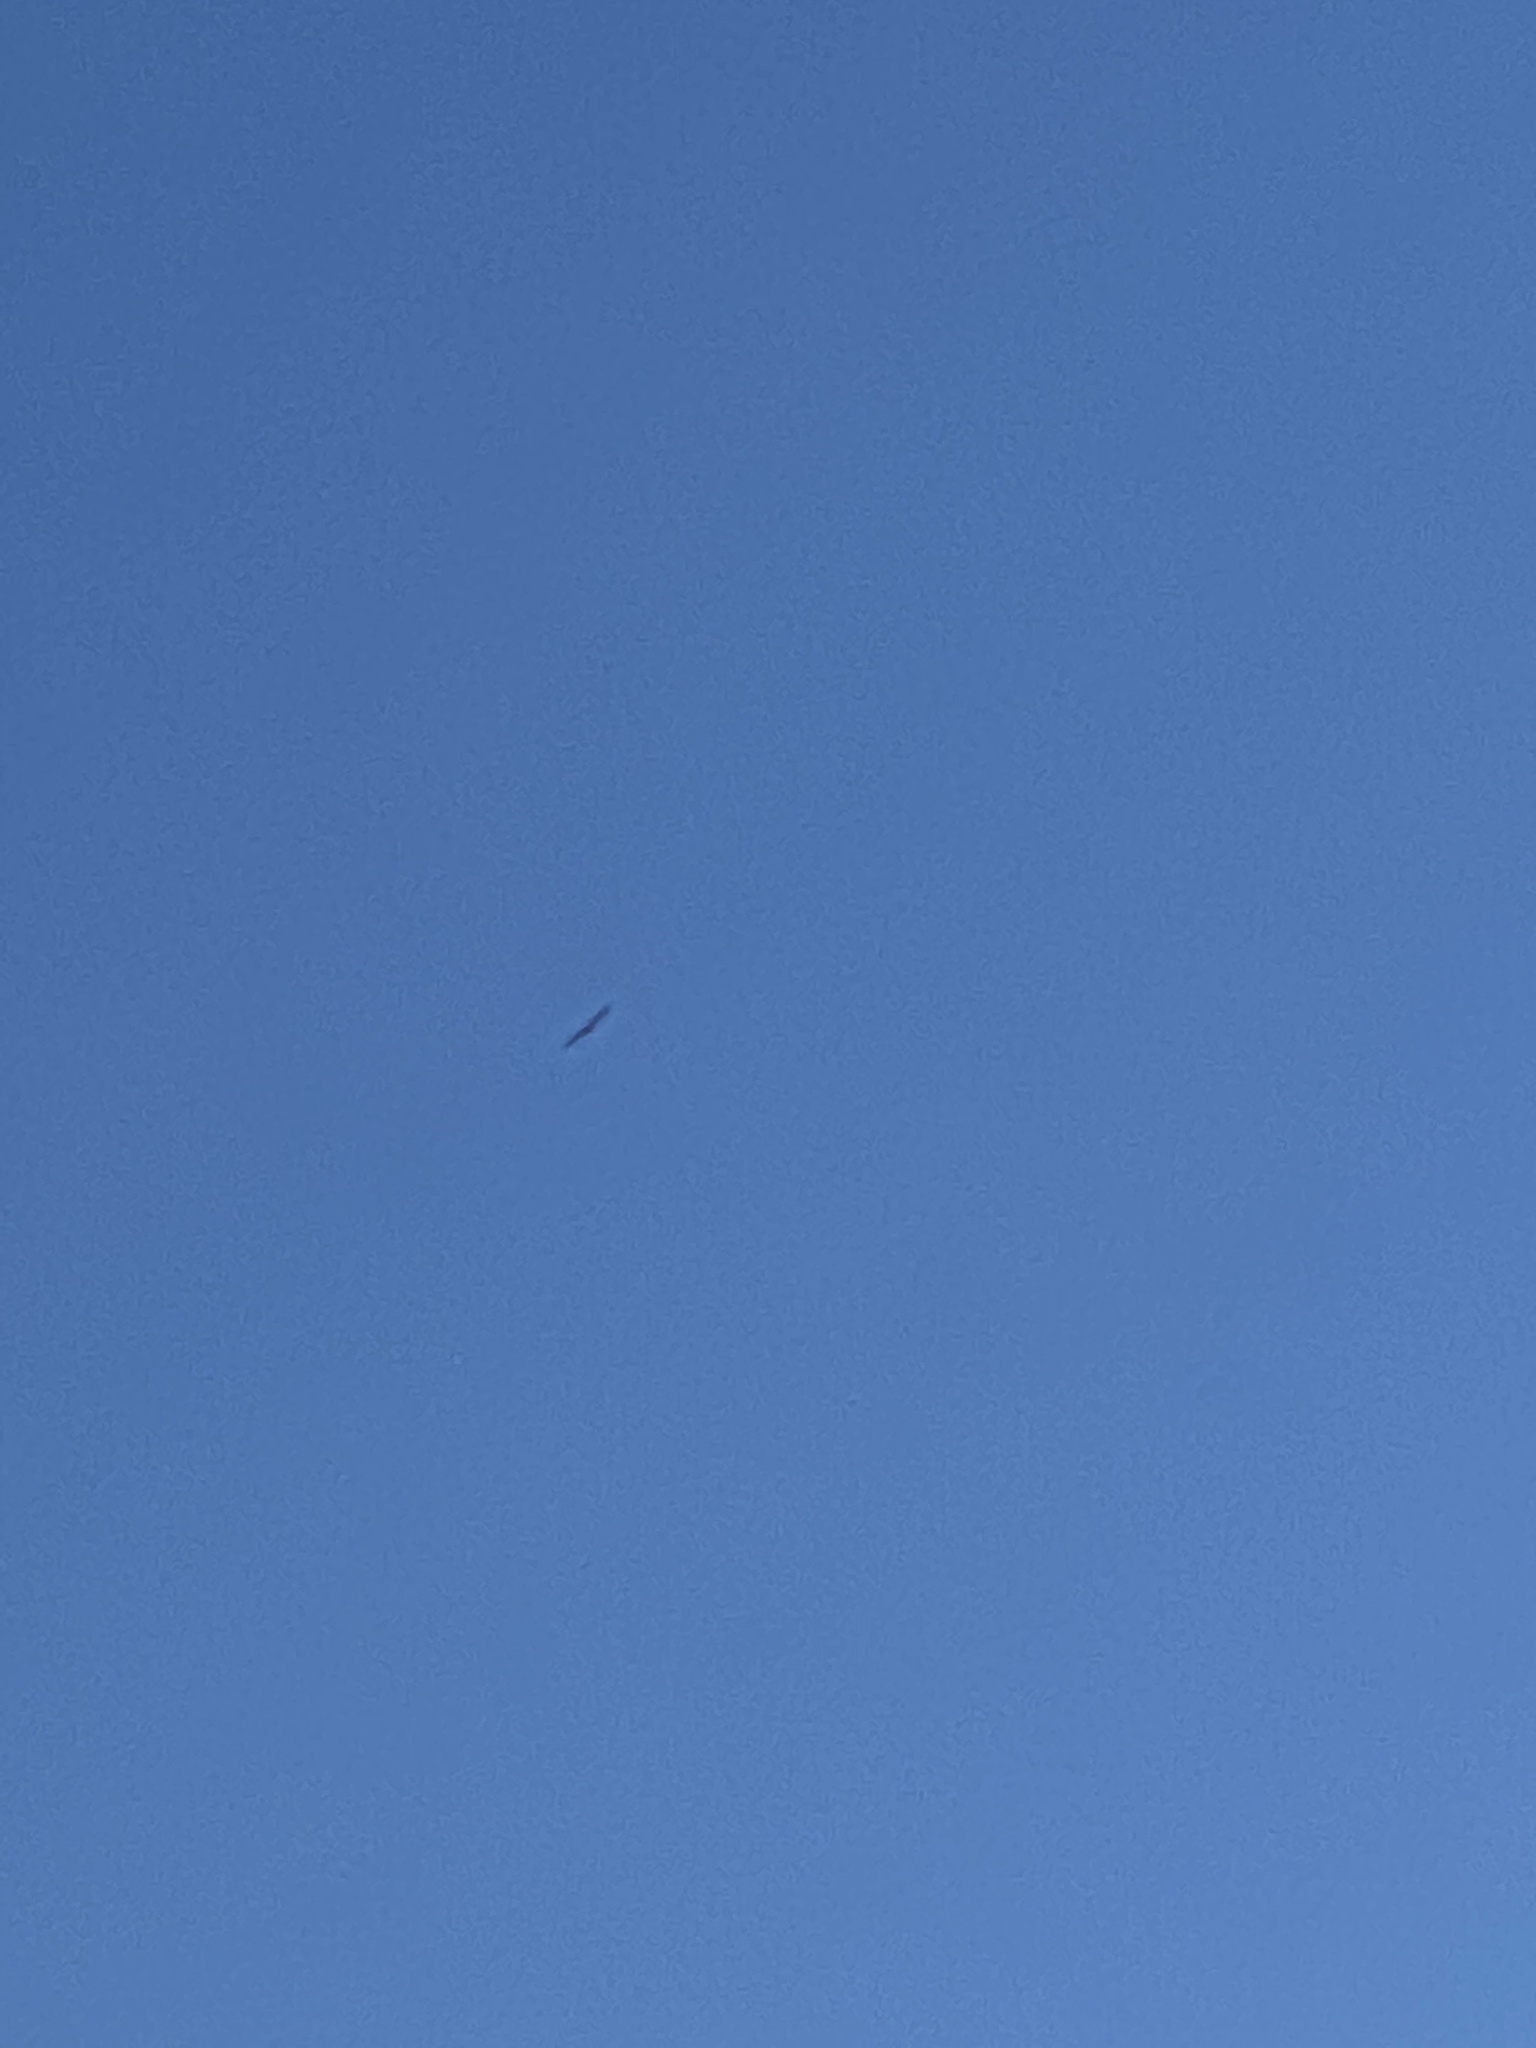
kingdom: Animalia
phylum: Chordata
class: Aves
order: Accipitriformes
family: Accipitridae
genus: Buteo
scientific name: Buteo jamaicensis
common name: Red-tailed hawk
